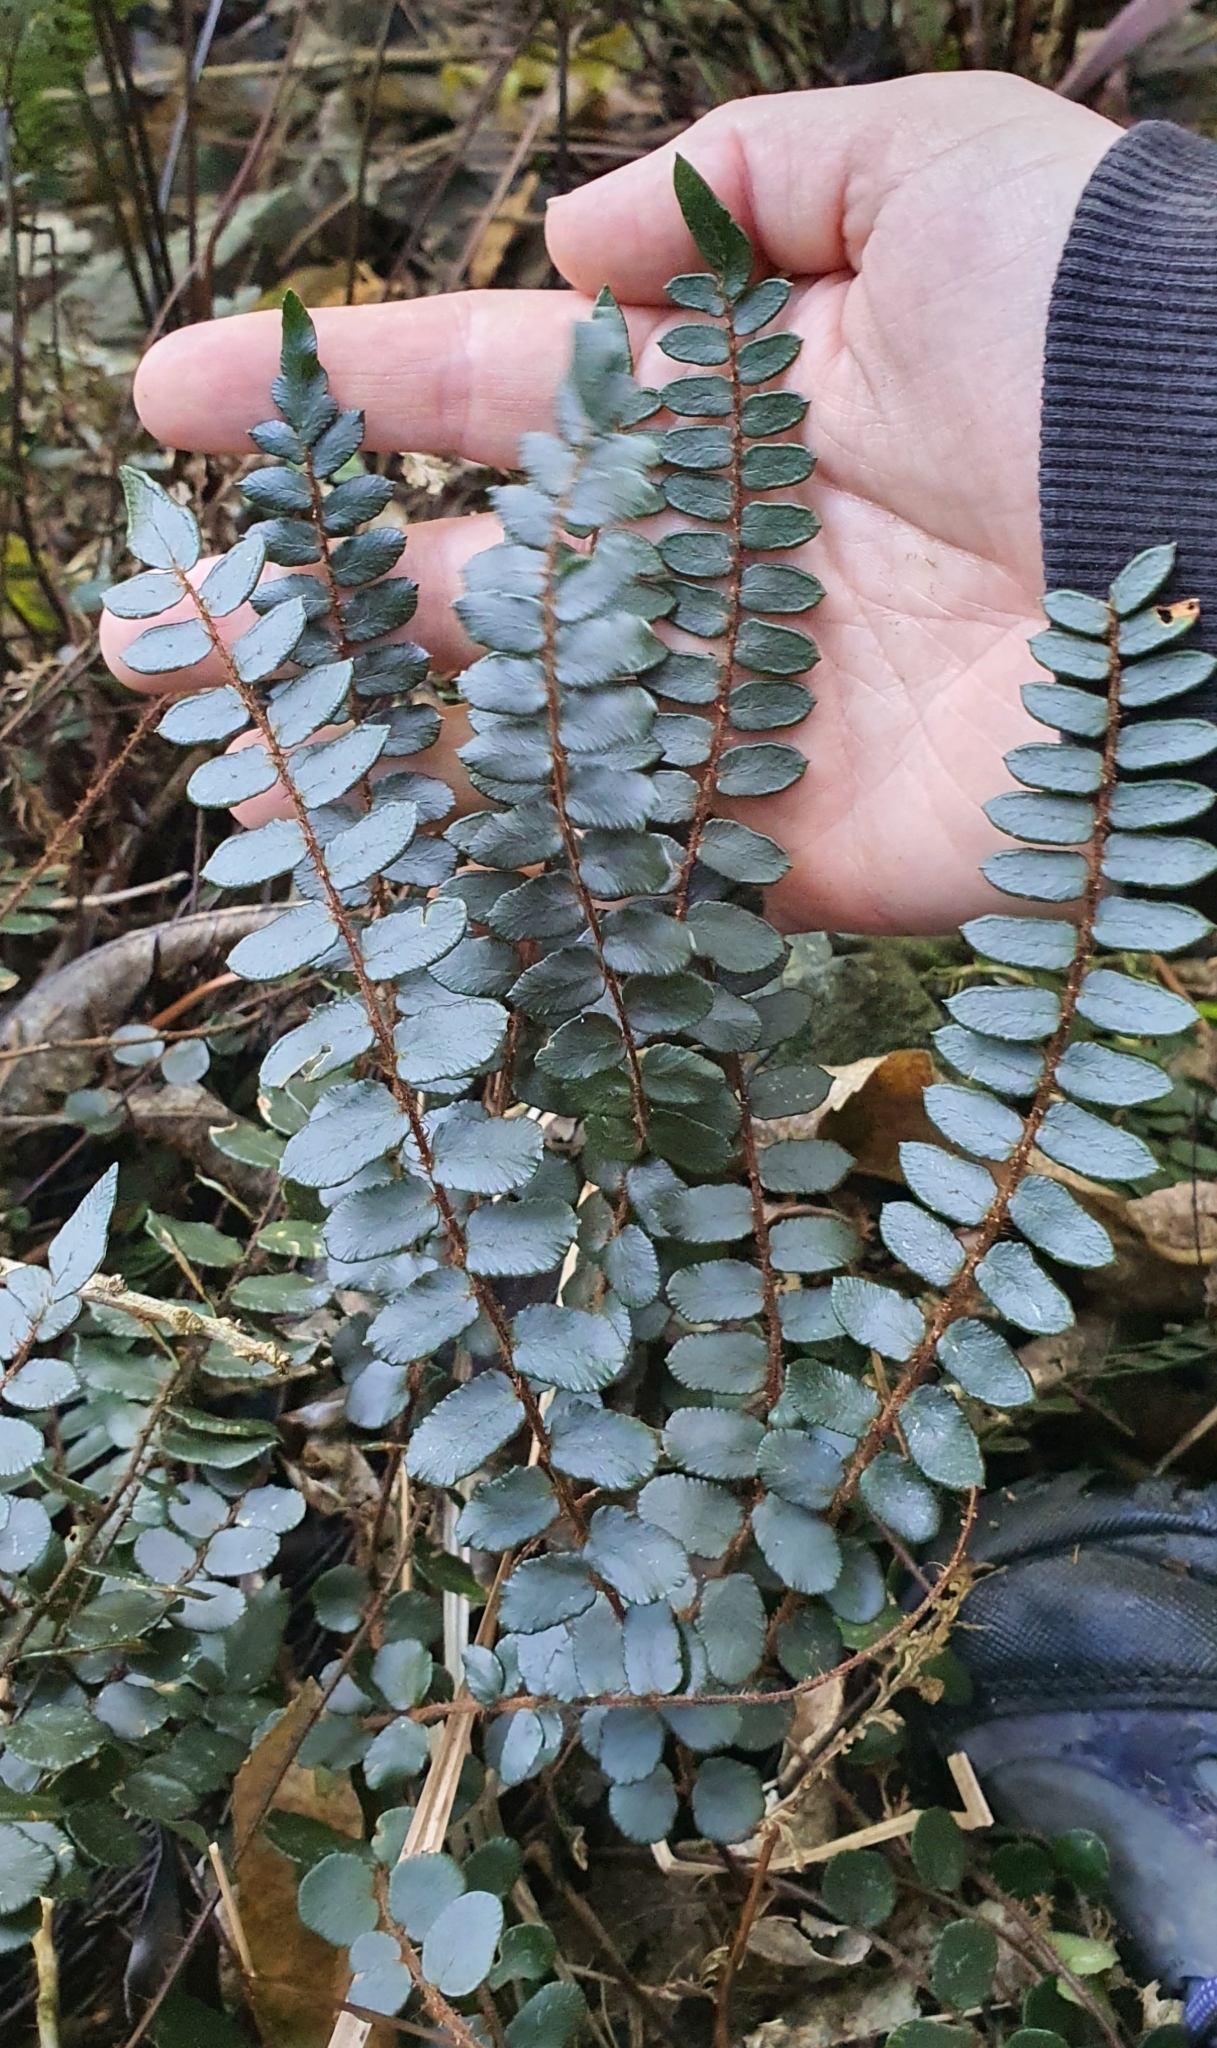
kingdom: Plantae
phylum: Tracheophyta
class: Polypodiopsida
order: Polypodiales
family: Pteridaceae
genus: Pellaea
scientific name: Pellaea rotundifolia
